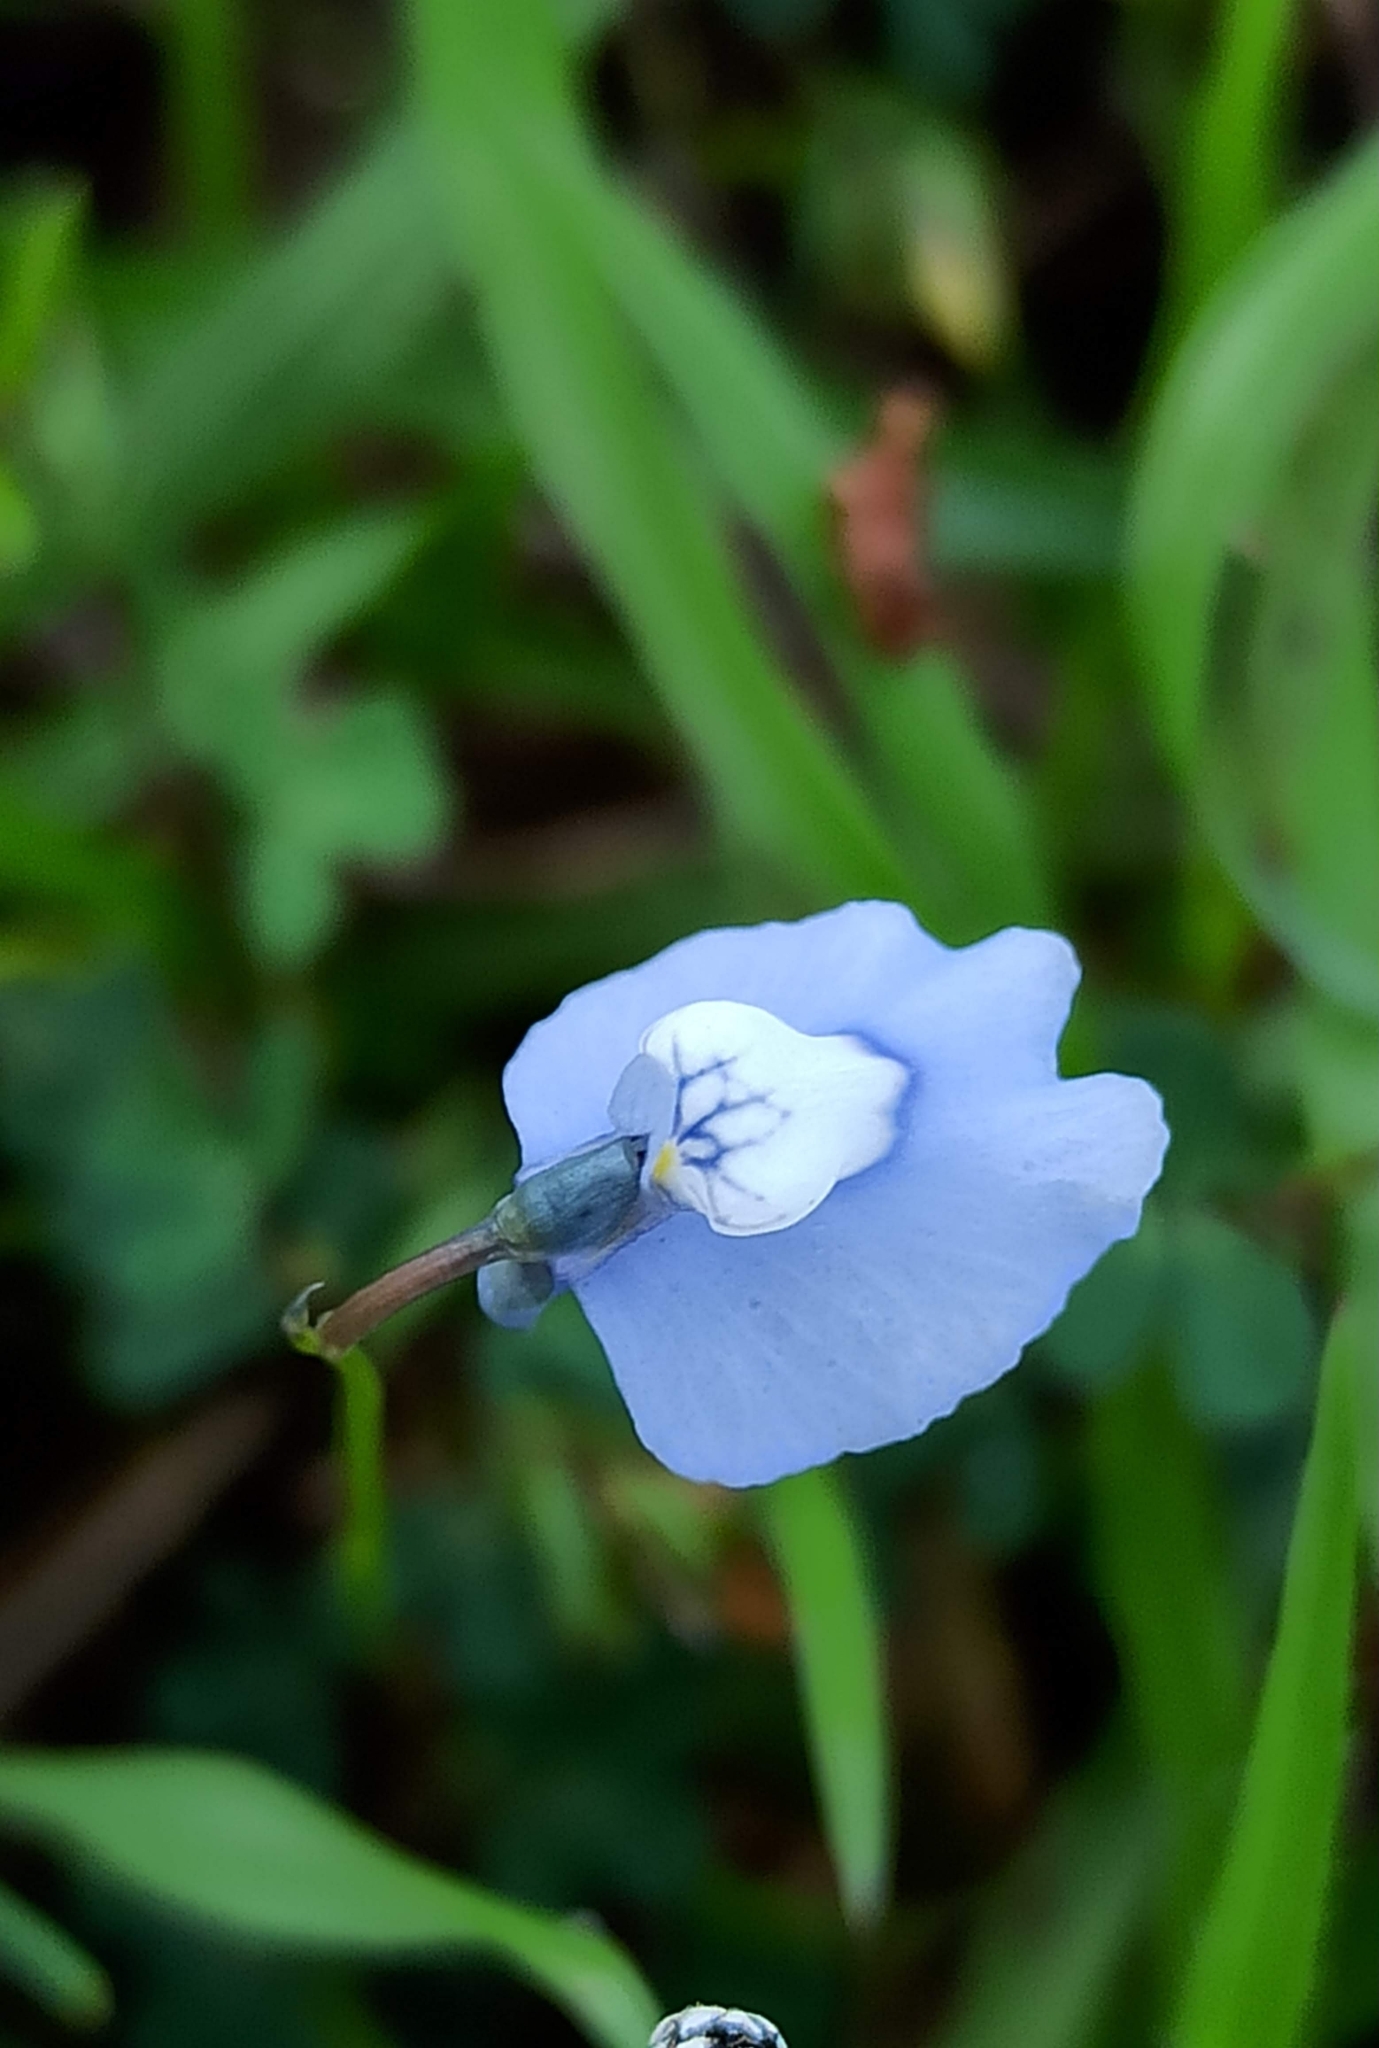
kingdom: Plantae
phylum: Tracheophyta
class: Magnoliopsida
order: Lamiales
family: Lentibulariaceae
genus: Utricularia
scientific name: Utricularia lazulina
